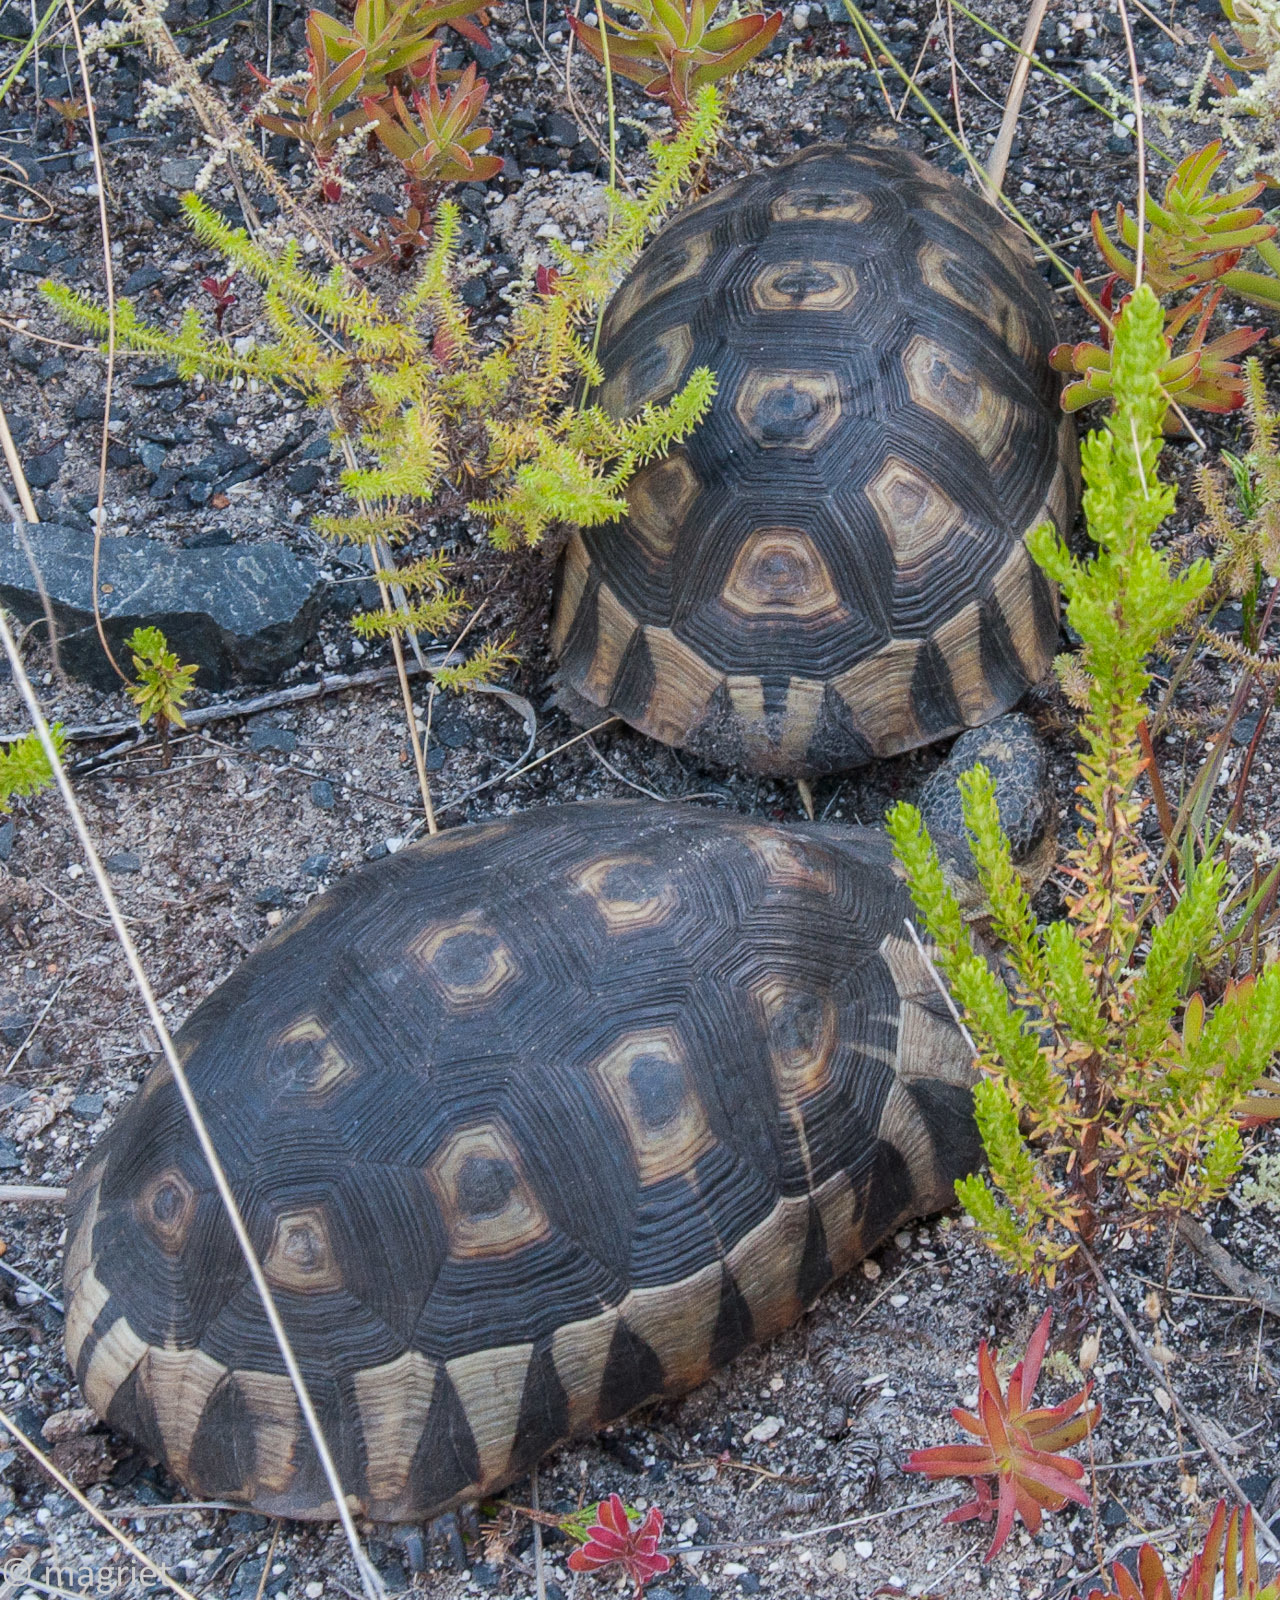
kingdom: Animalia
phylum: Chordata
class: Testudines
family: Testudinidae
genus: Chersina
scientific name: Chersina angulata
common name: South african bowsprit tortoise
